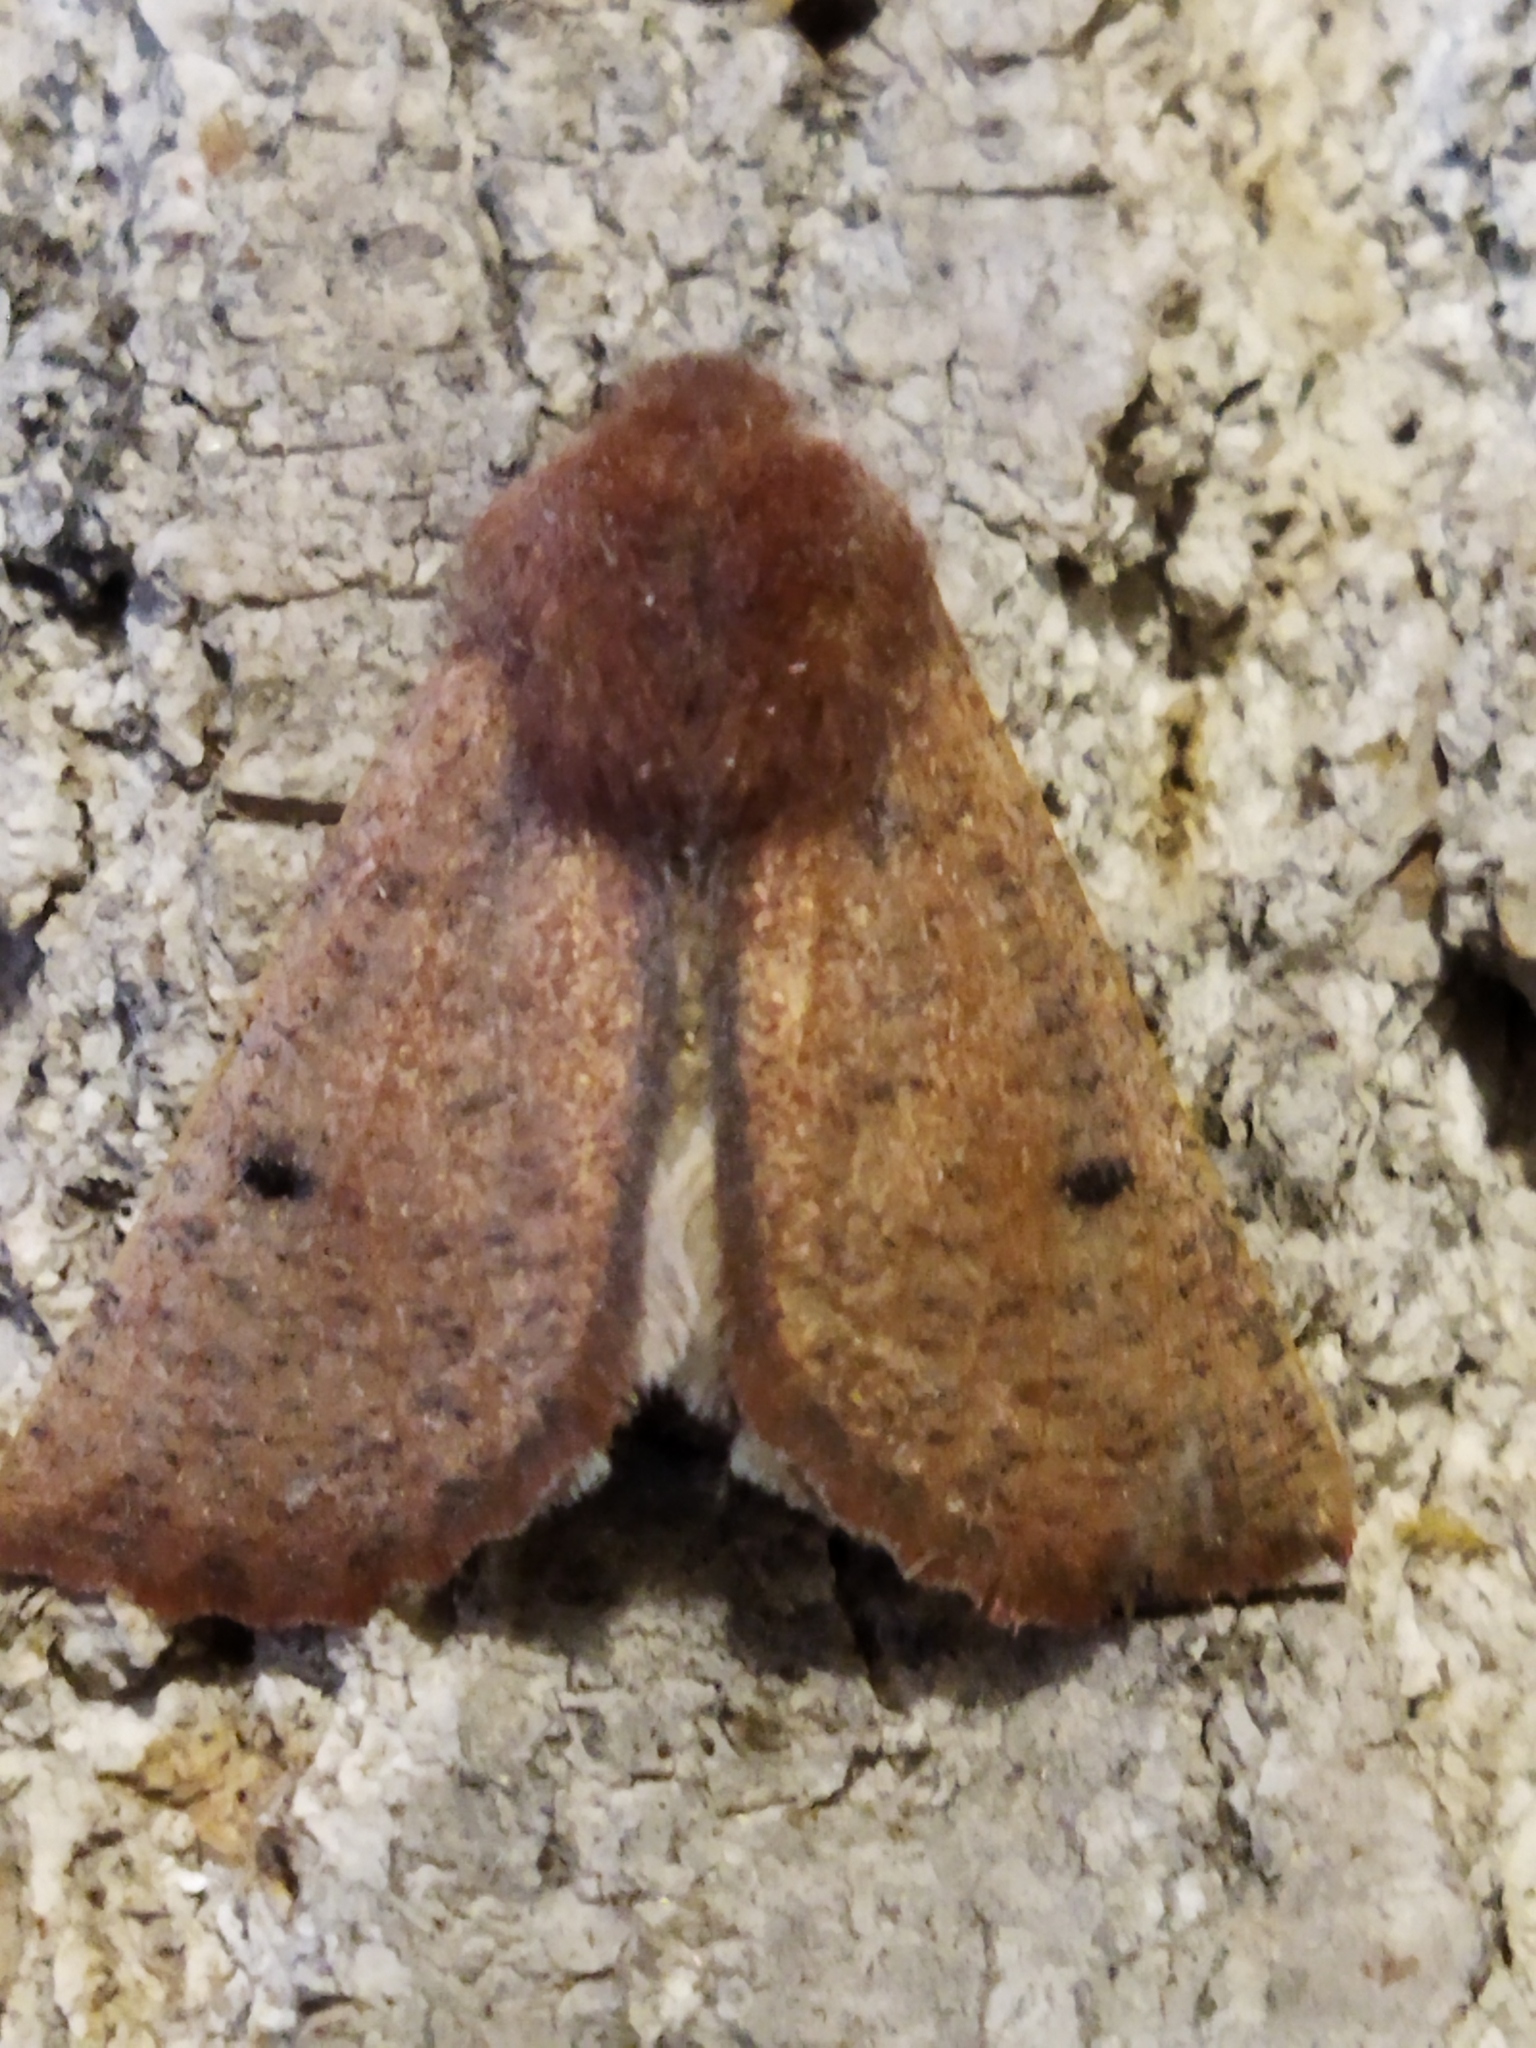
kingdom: Animalia
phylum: Arthropoda
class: Insecta
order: Lepidoptera
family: Geometridae
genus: Dasycorsa
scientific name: Dasycorsa modesta
